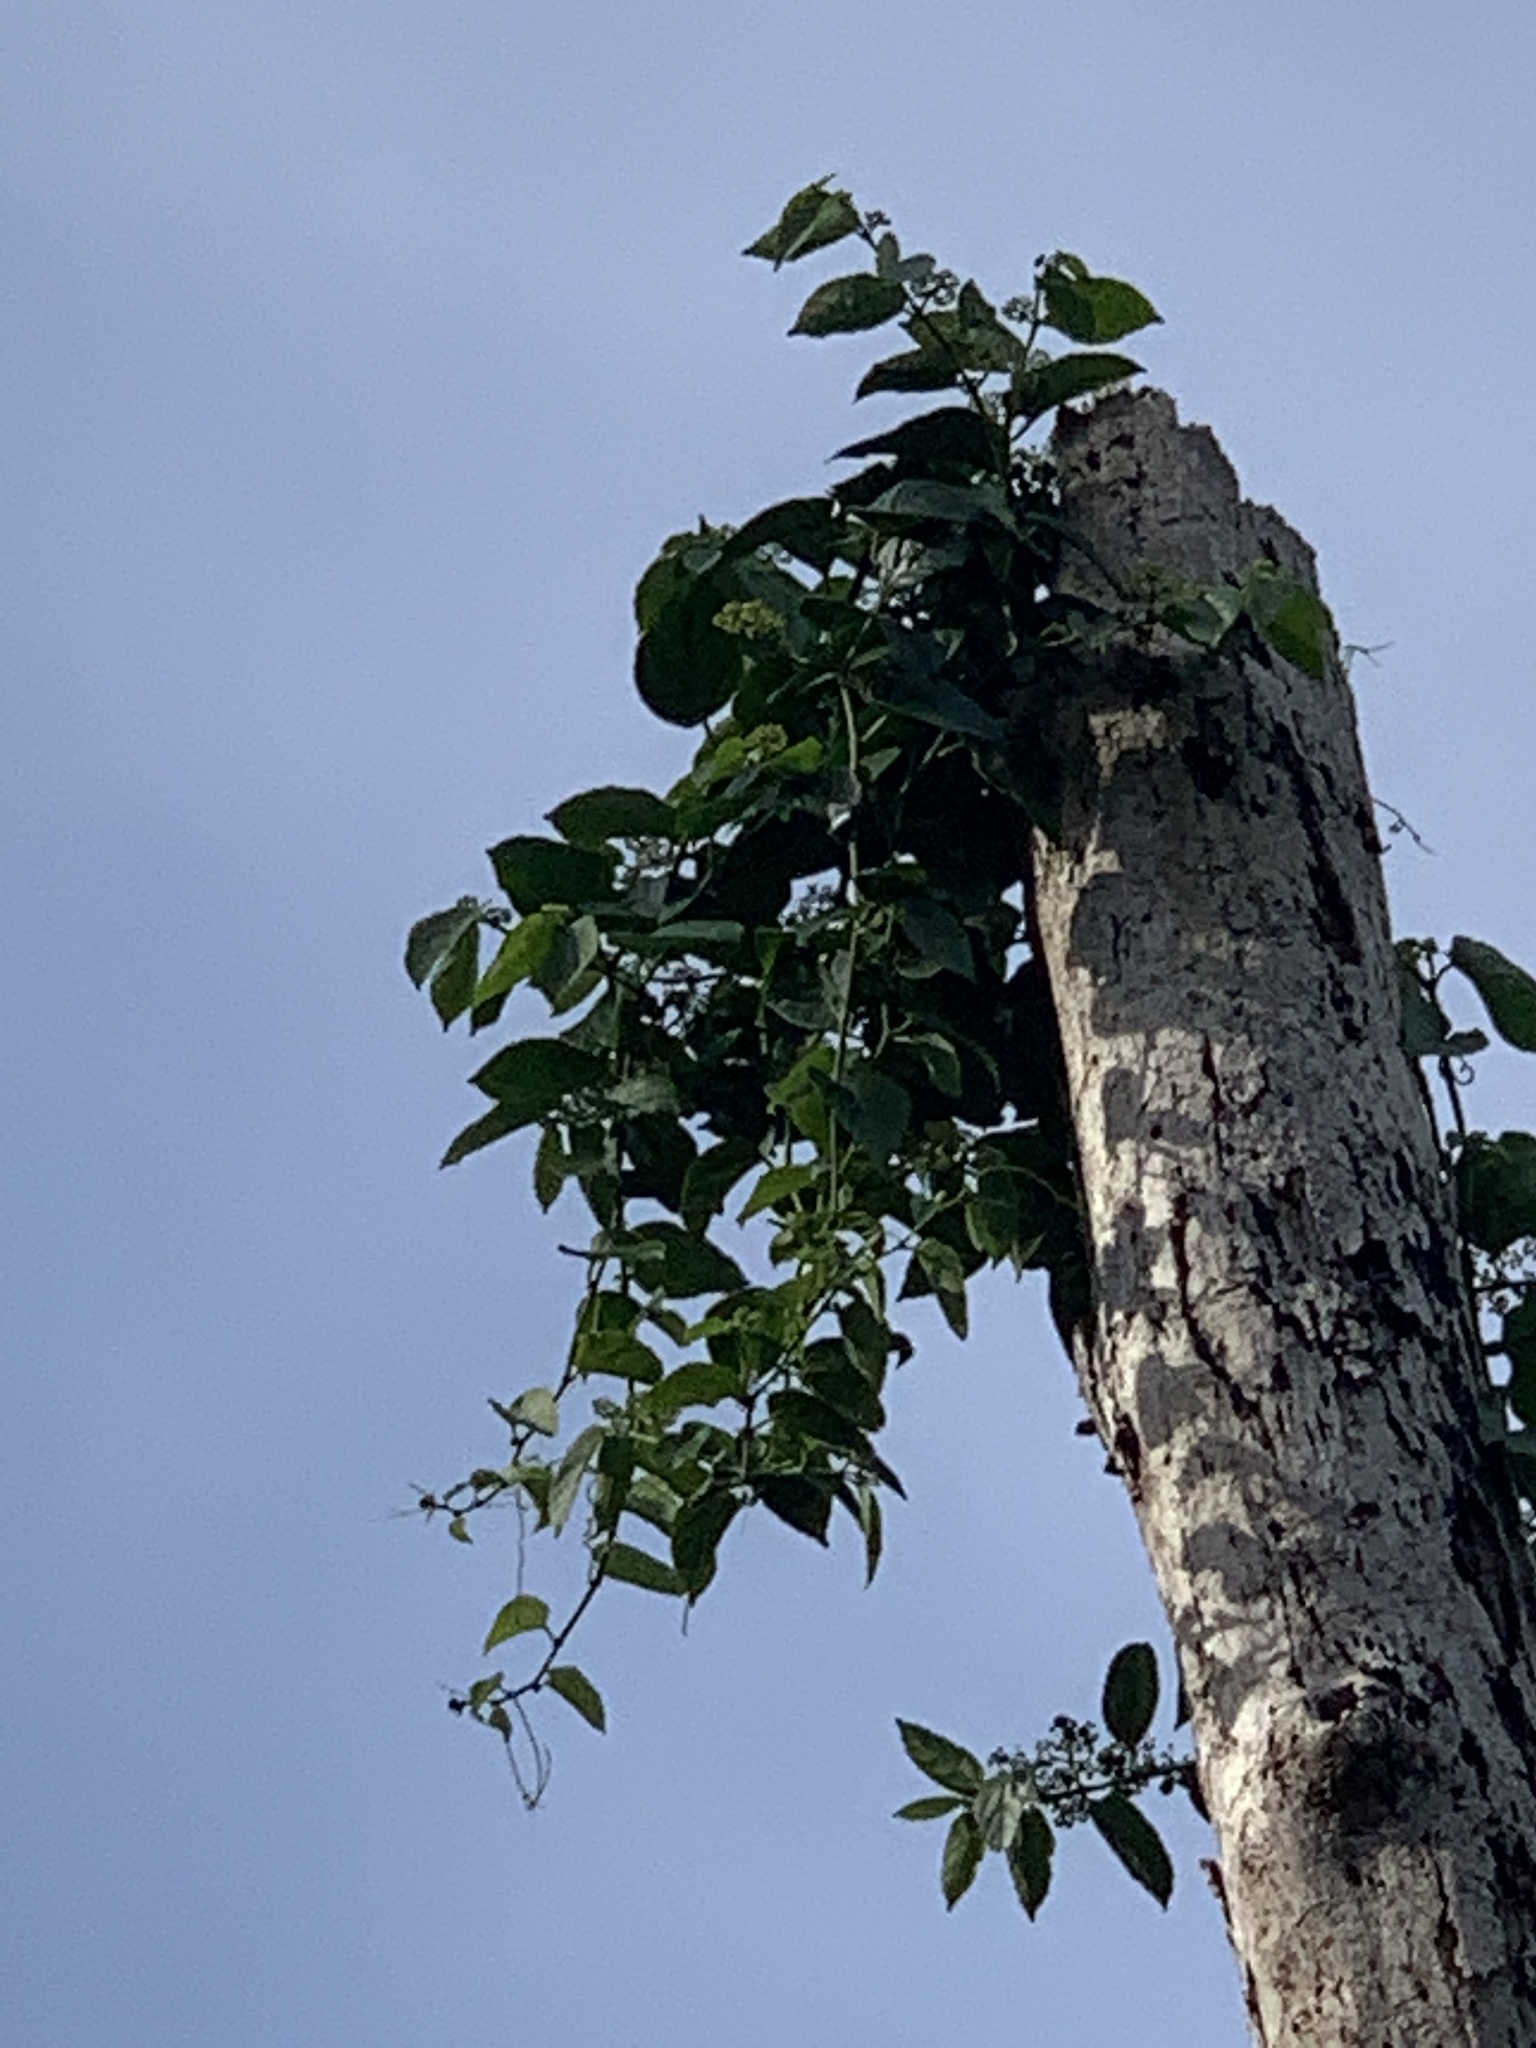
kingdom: Plantae
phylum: Tracheophyta
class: Magnoliopsida
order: Vitales
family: Vitaceae
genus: Cissus
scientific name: Cissus verticillata
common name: Princess vine
